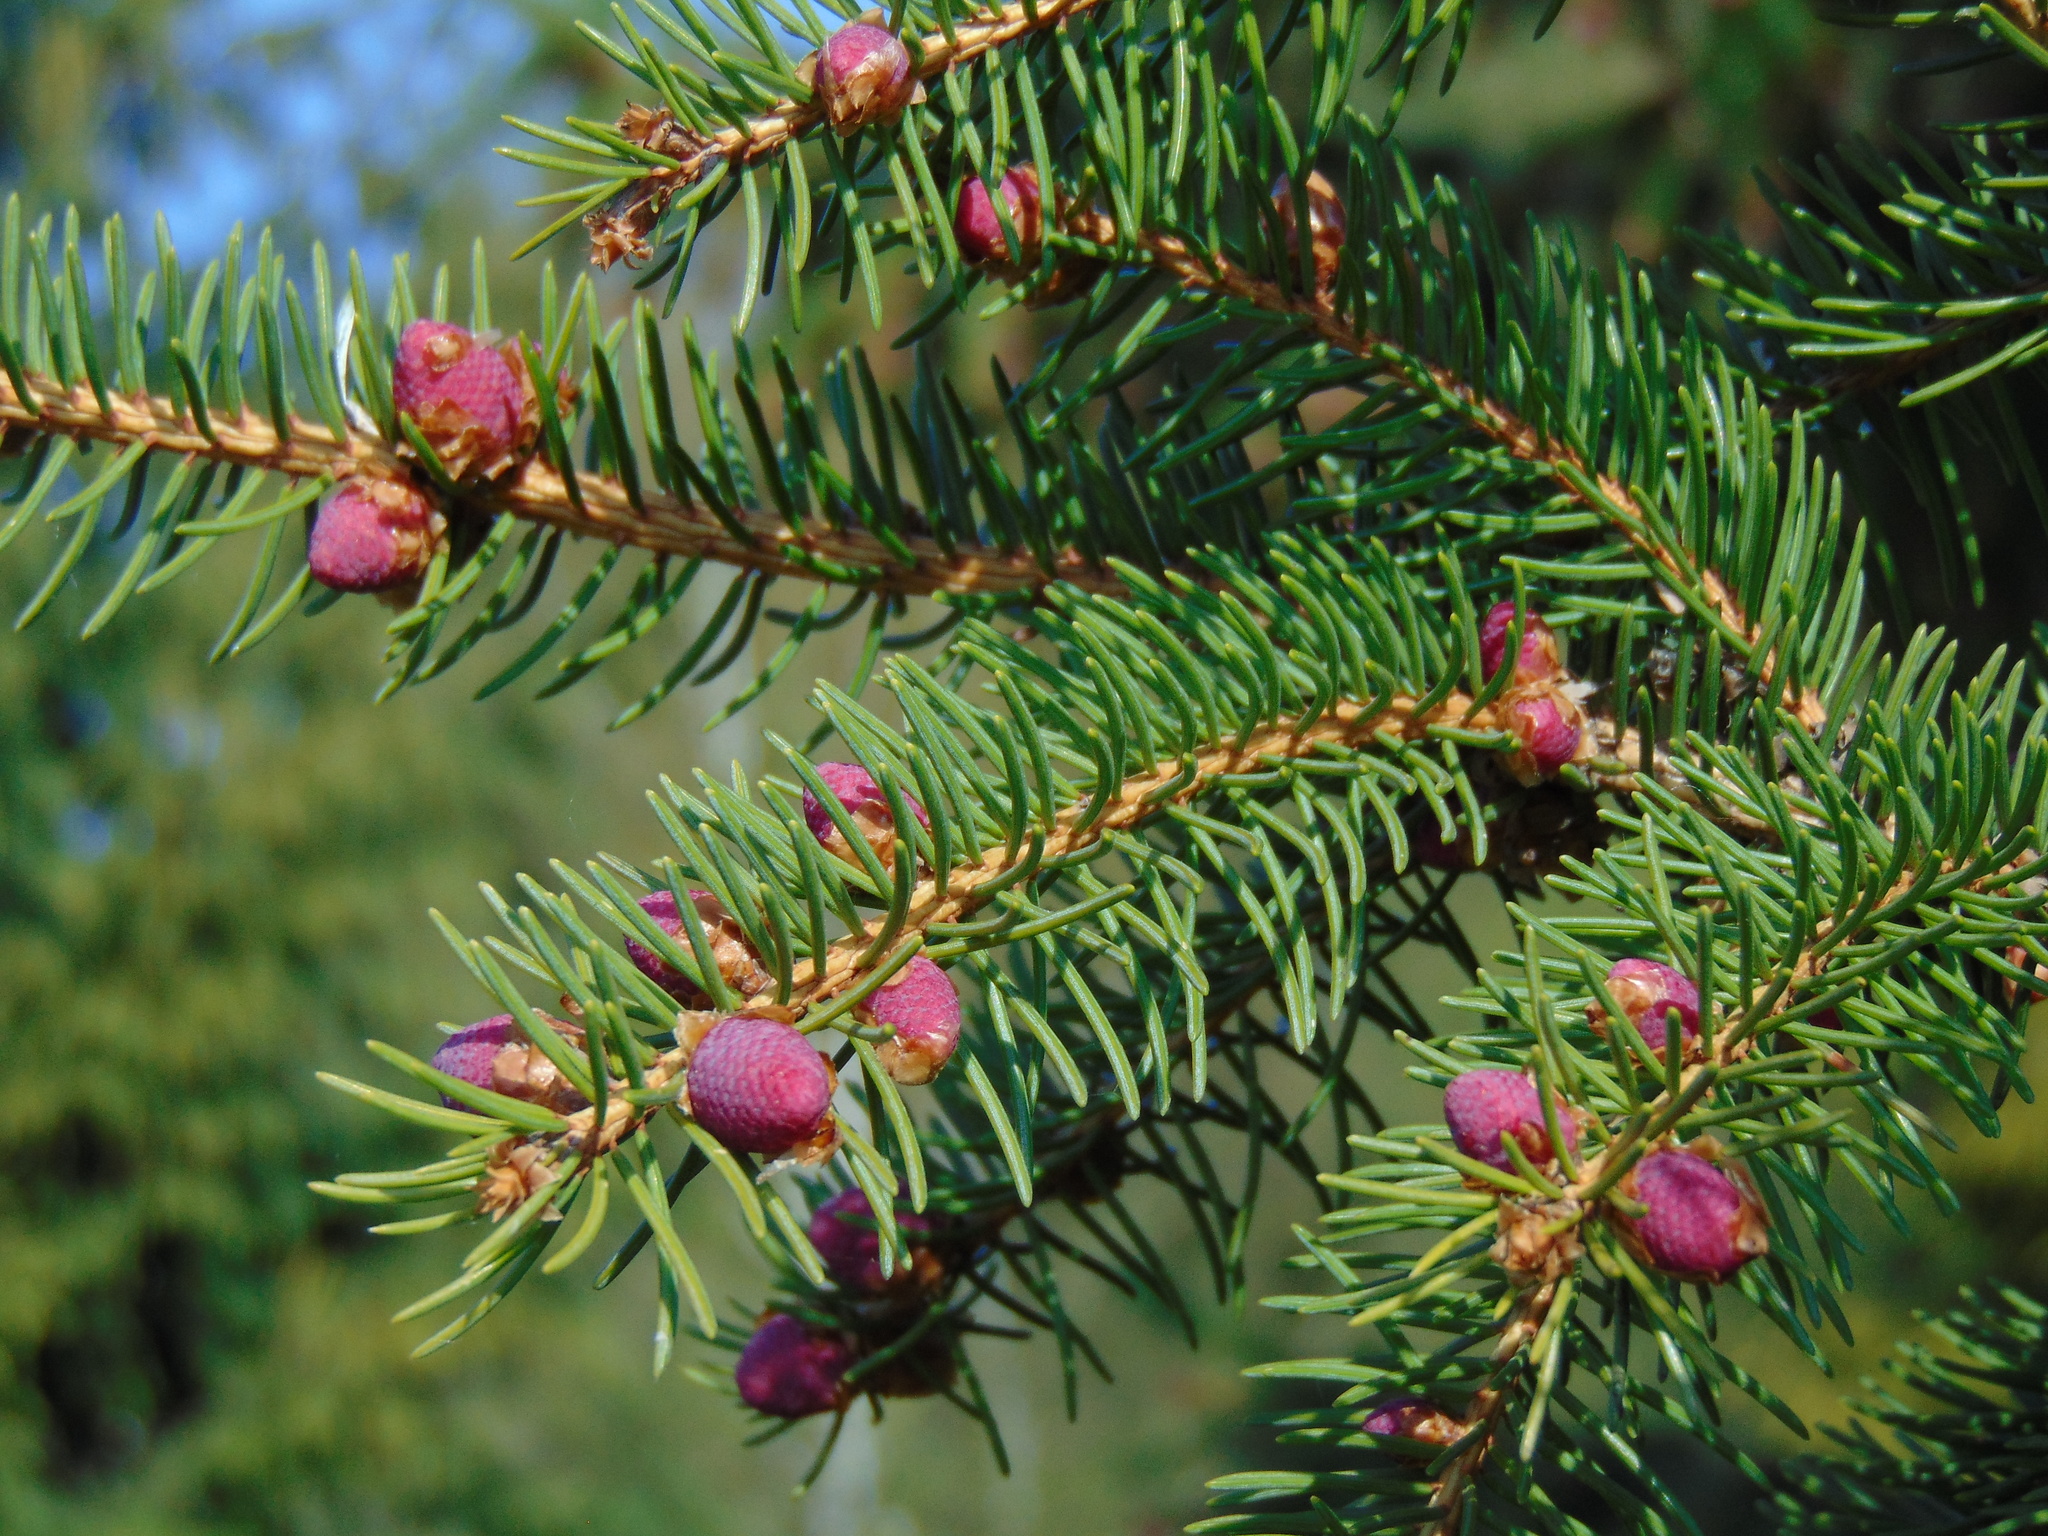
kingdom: Plantae
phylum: Tracheophyta
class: Pinopsida
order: Pinales
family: Pinaceae
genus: Picea
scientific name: Picea abies
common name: Norway spruce
